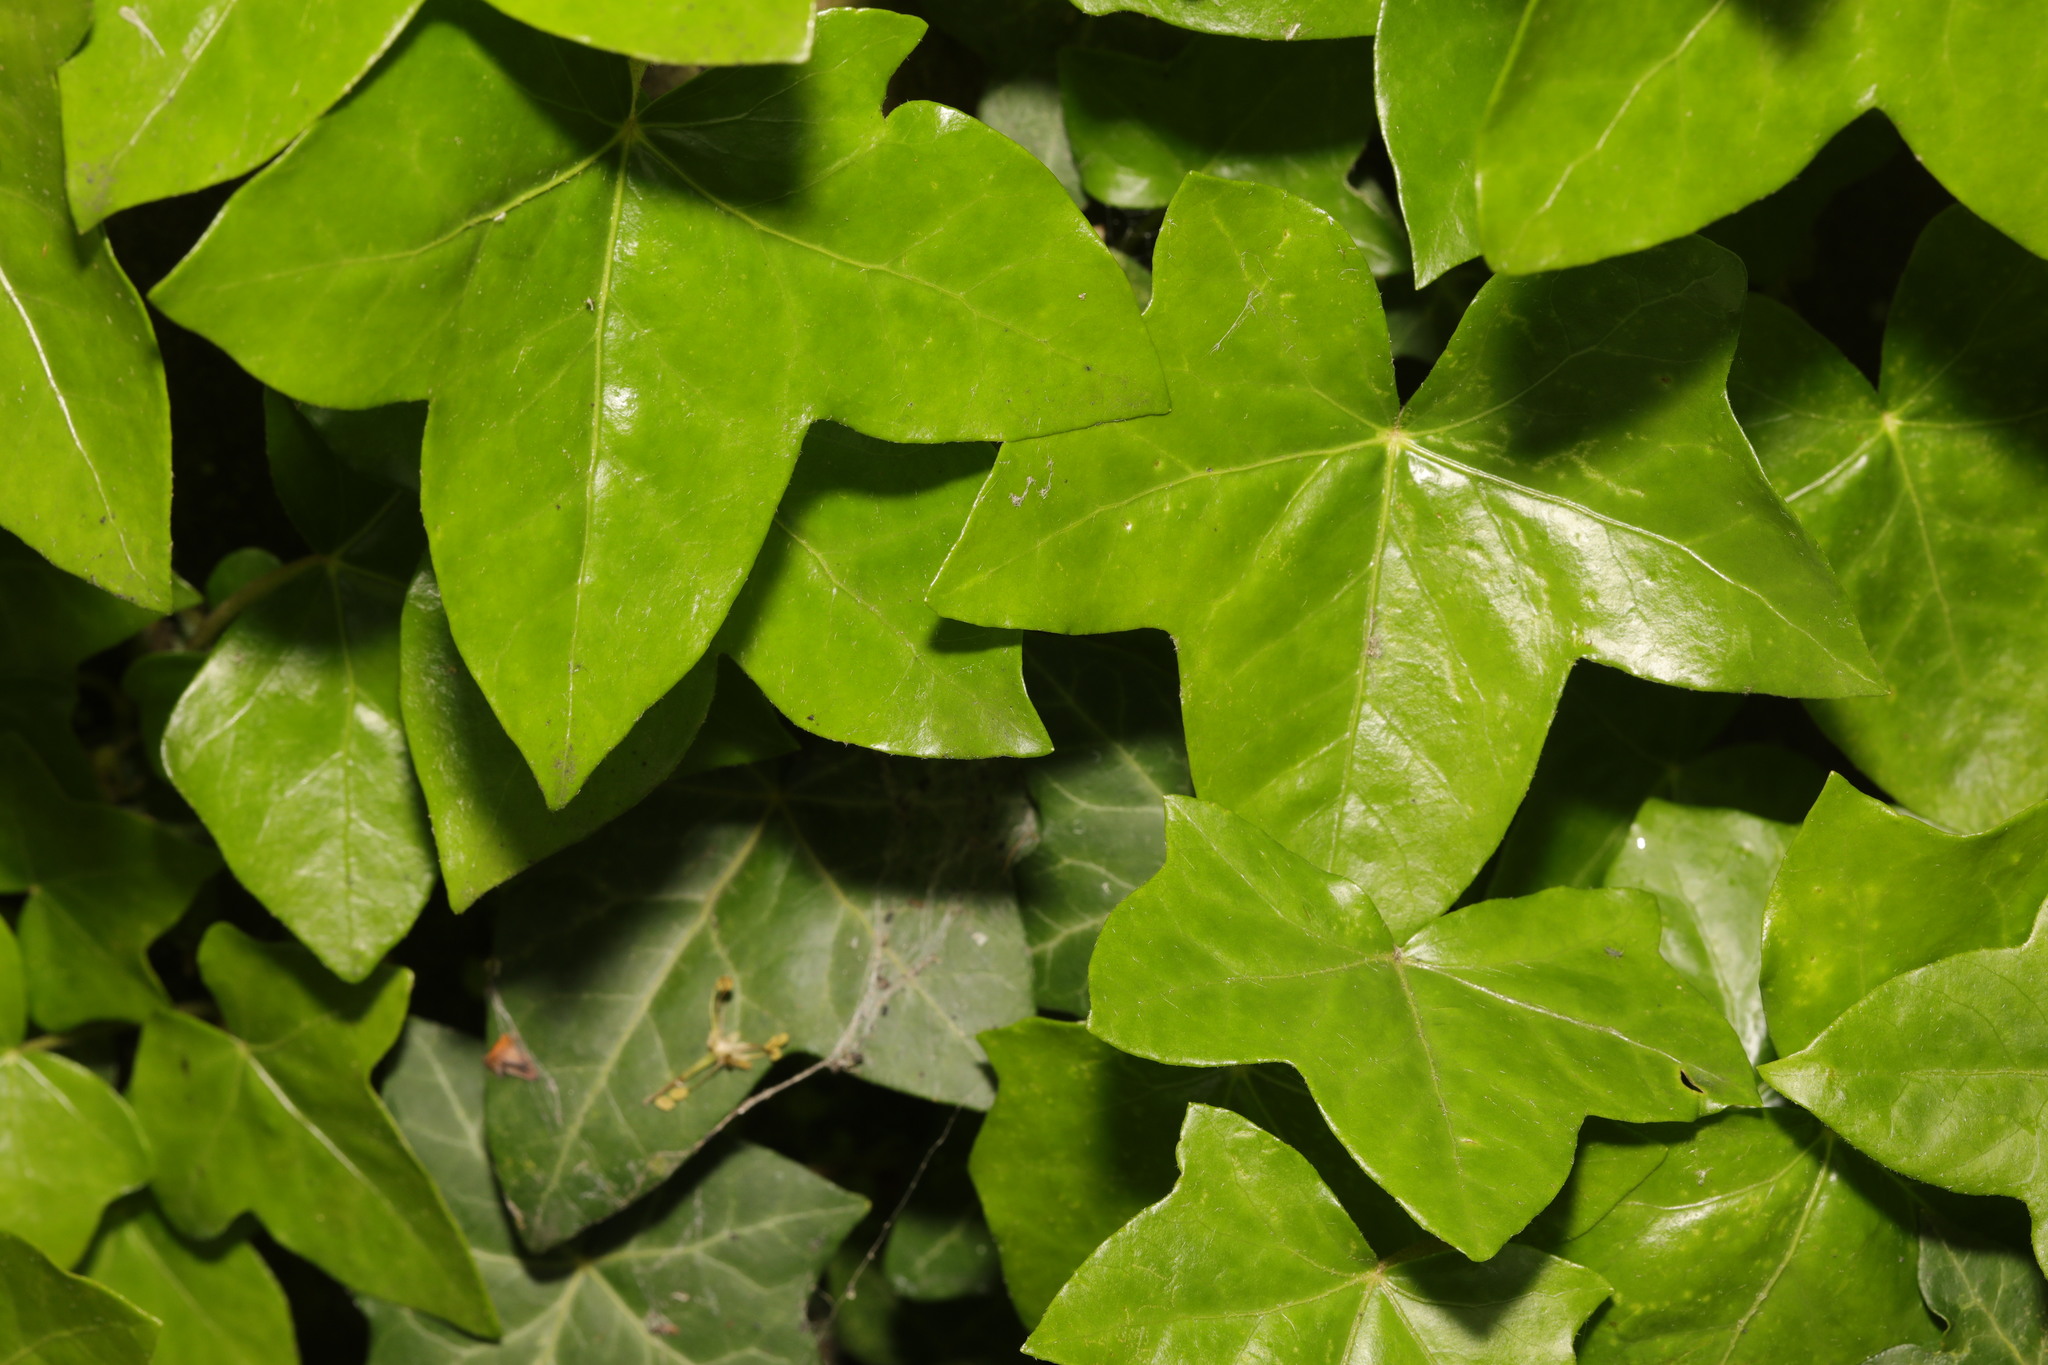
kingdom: Plantae
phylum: Tracheophyta
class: Magnoliopsida
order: Apiales
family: Araliaceae
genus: Hedera
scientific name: Hedera helix
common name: Ivy
